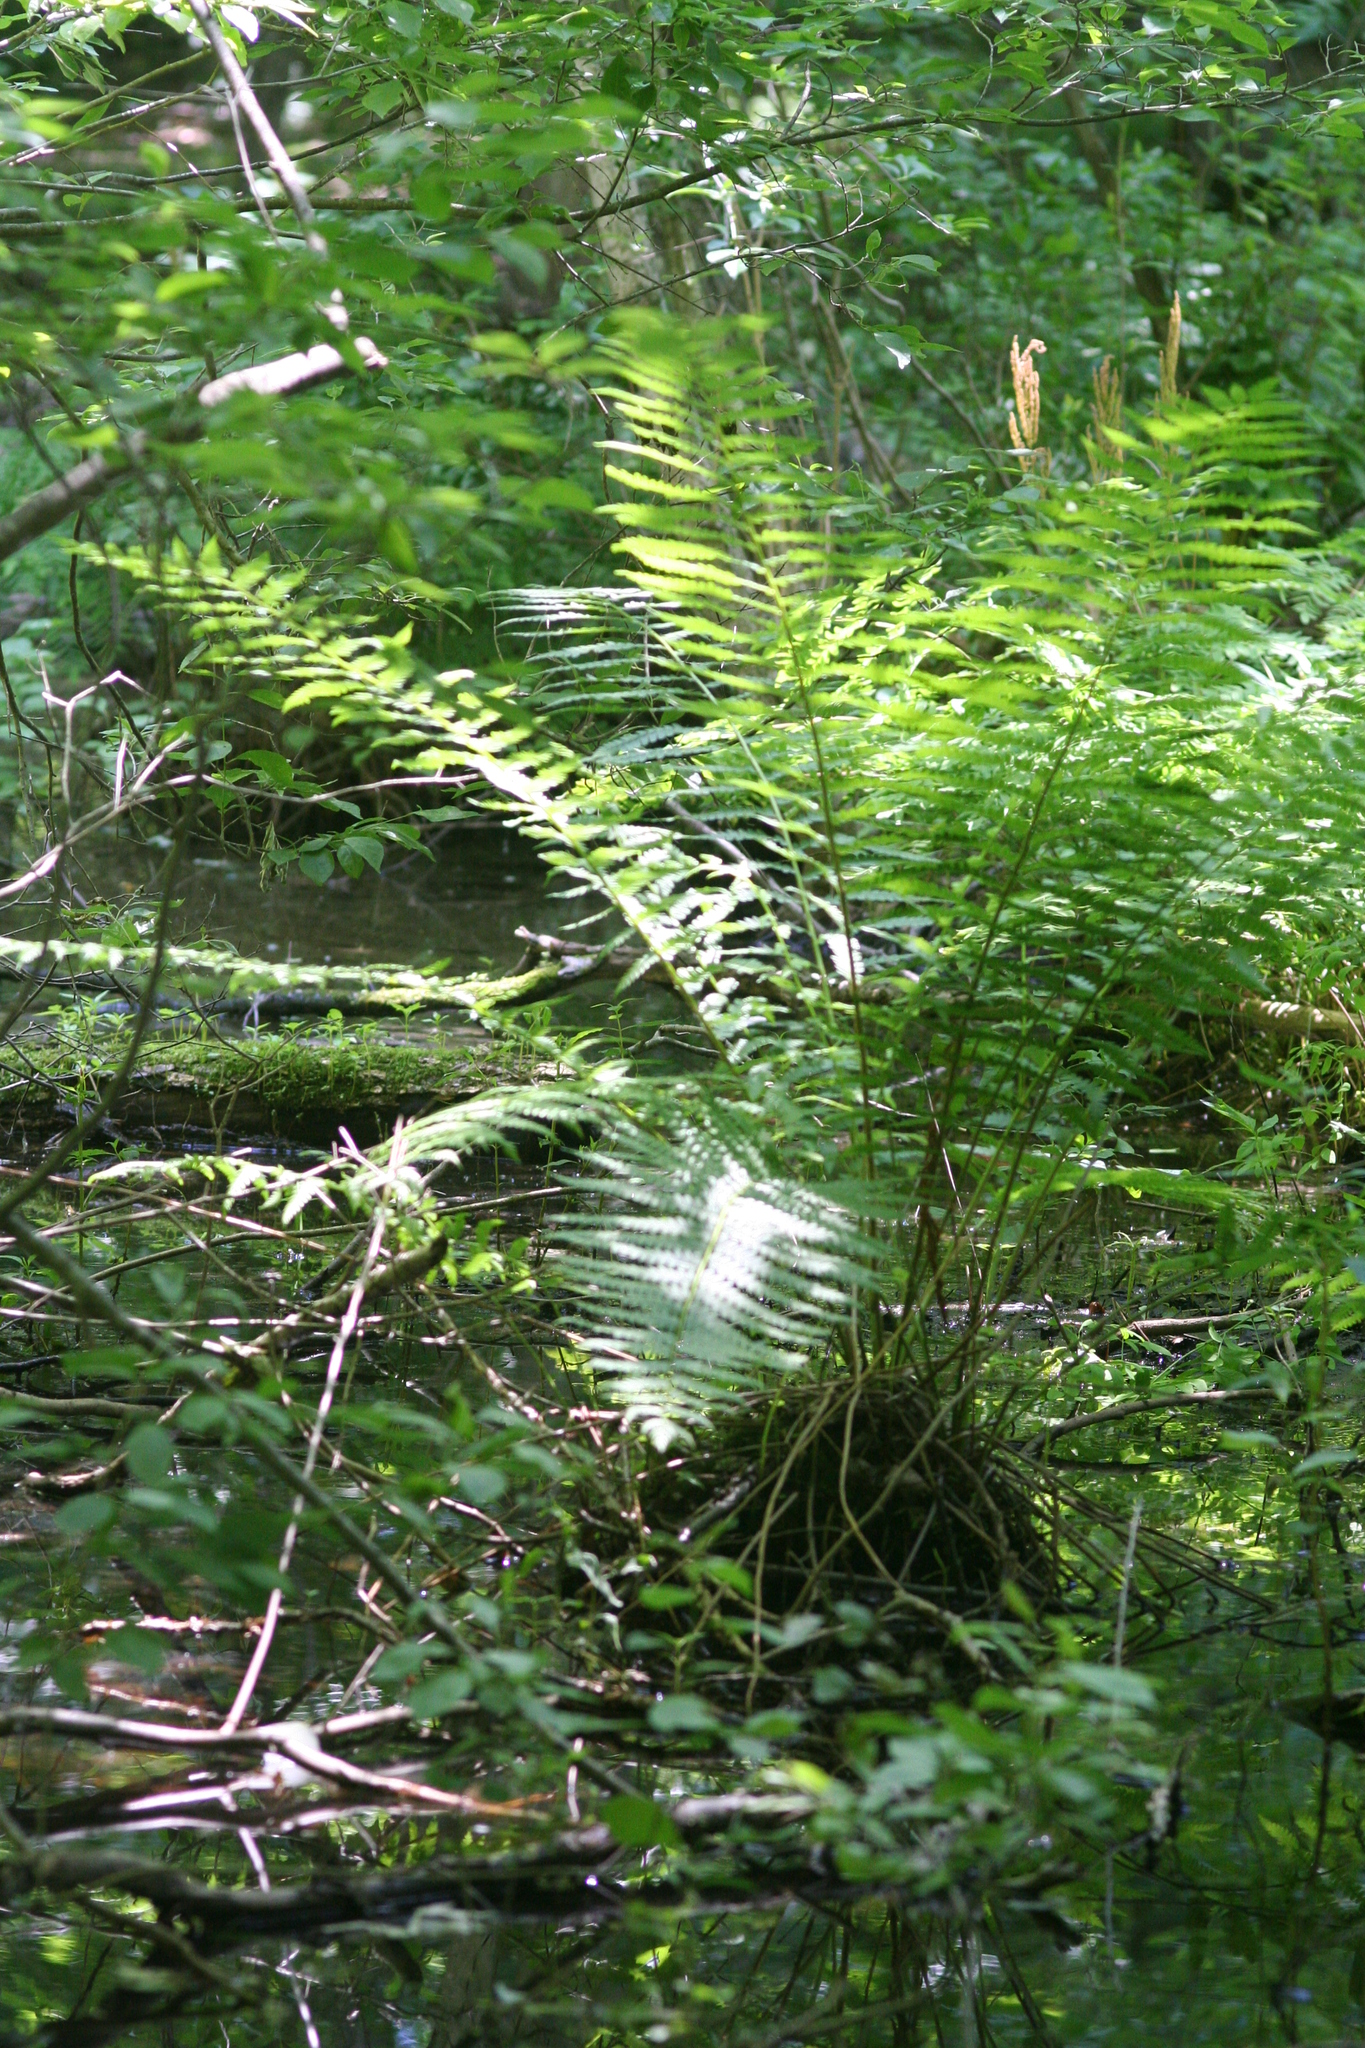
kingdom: Plantae
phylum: Tracheophyta
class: Polypodiopsida
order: Osmundales
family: Osmundaceae
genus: Osmundastrum
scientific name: Osmundastrum cinnamomeum
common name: Cinnamon fern
